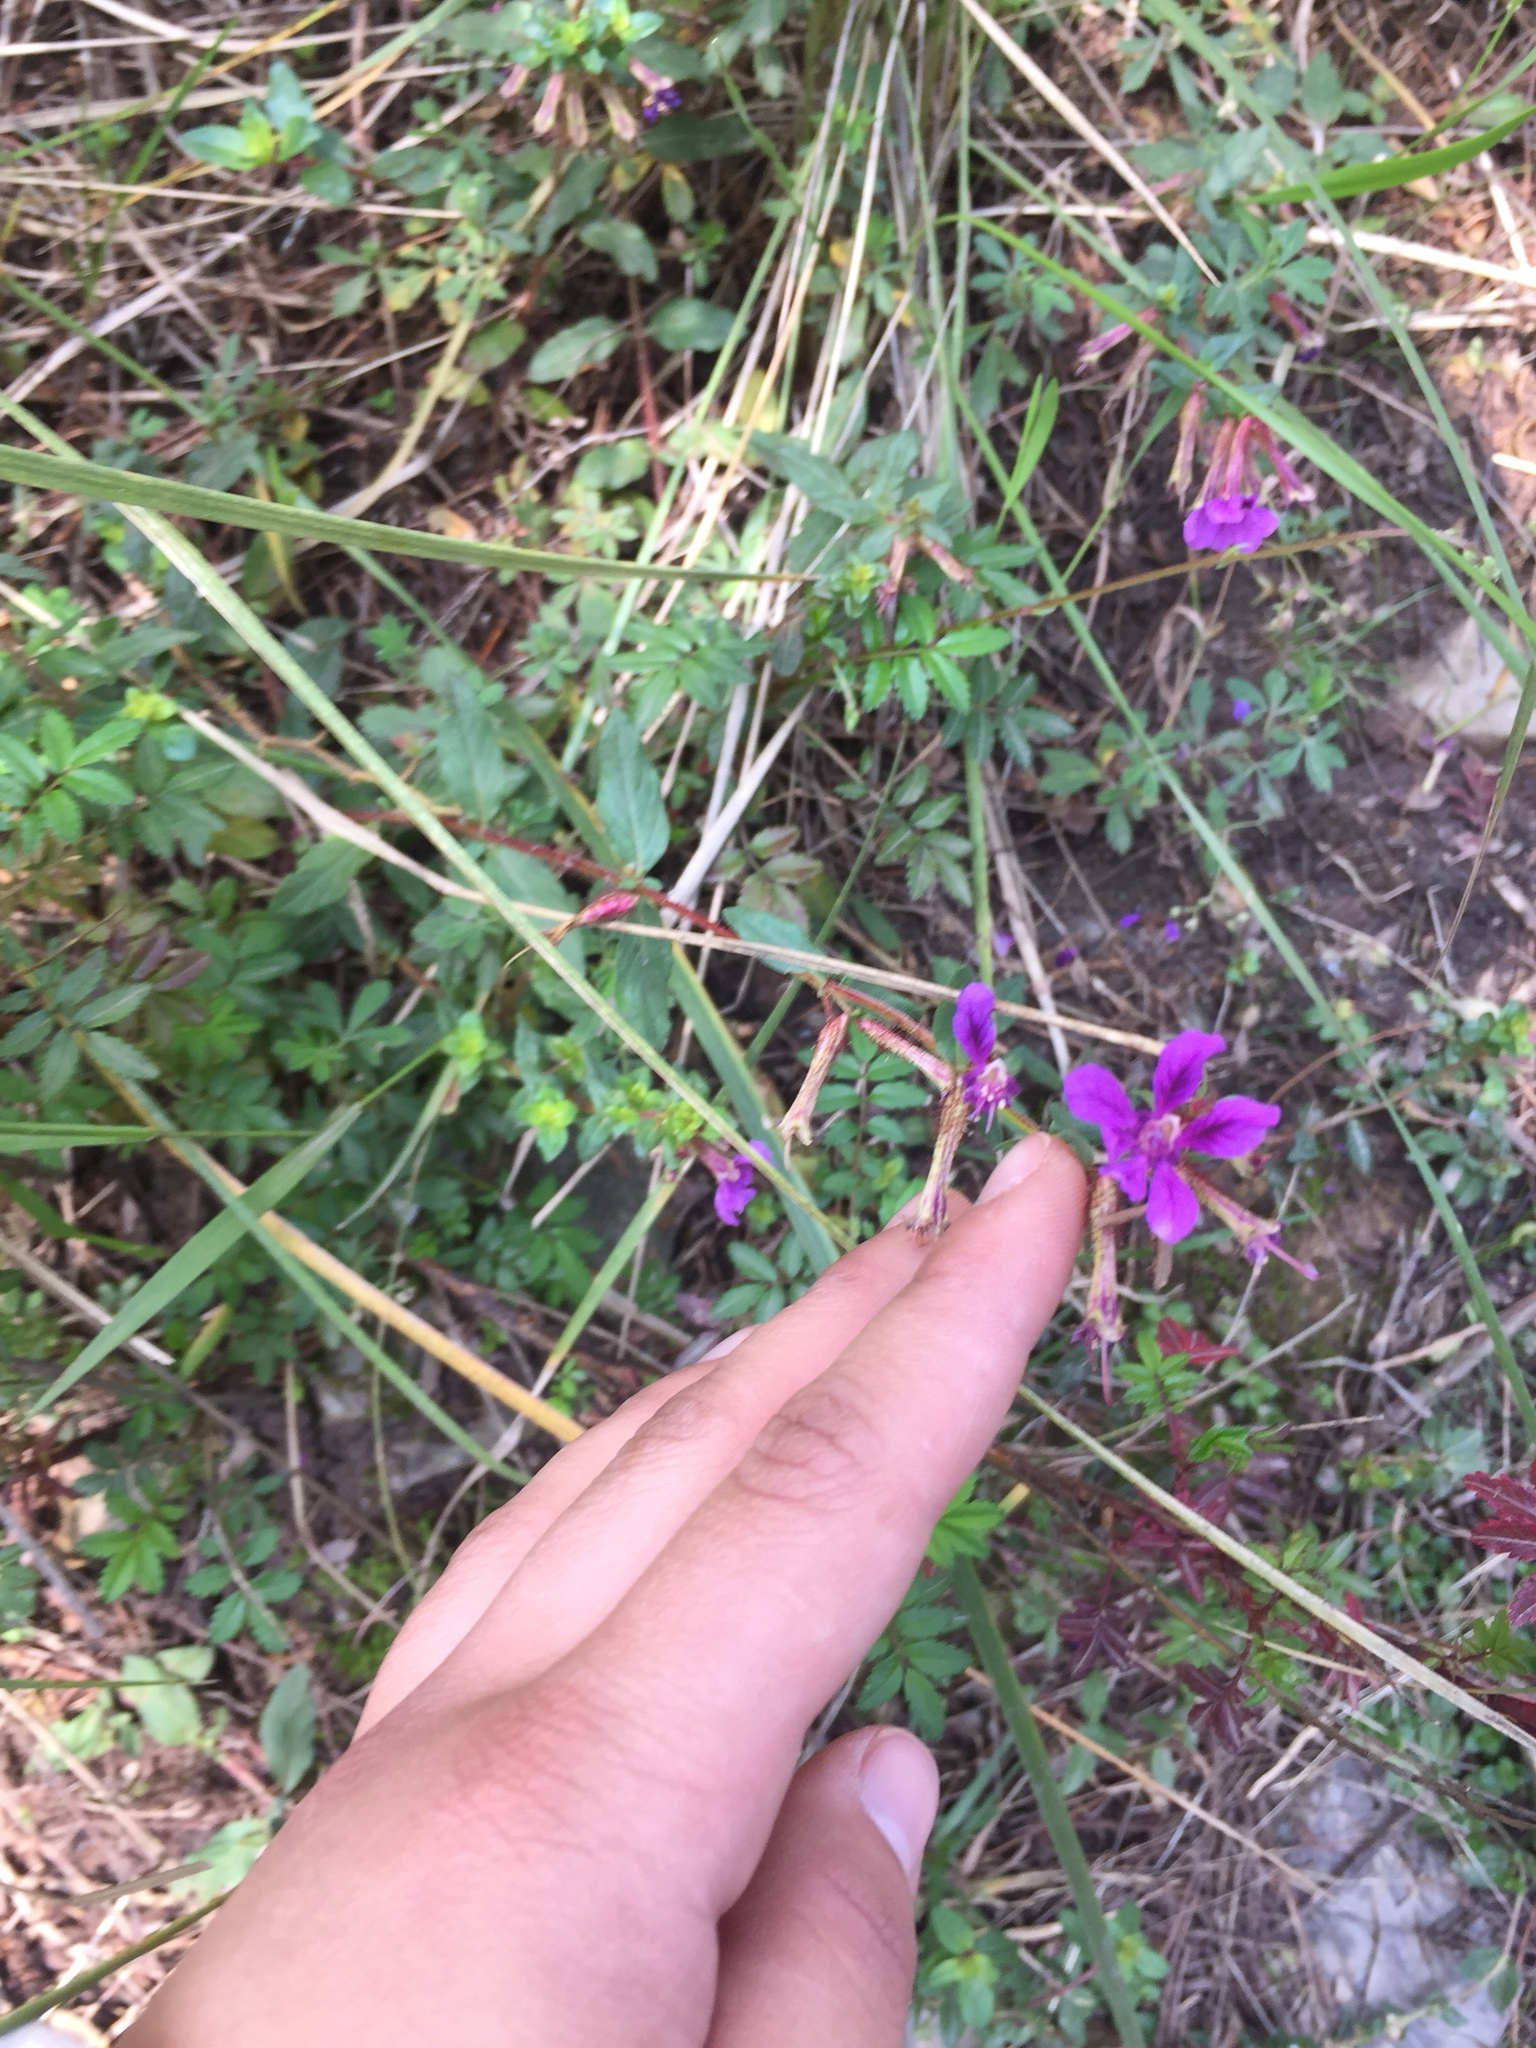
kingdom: Plantae
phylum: Tracheophyta
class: Magnoliopsida
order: Myrtales
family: Lythraceae
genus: Cuphea
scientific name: Cuphea aequipetala
